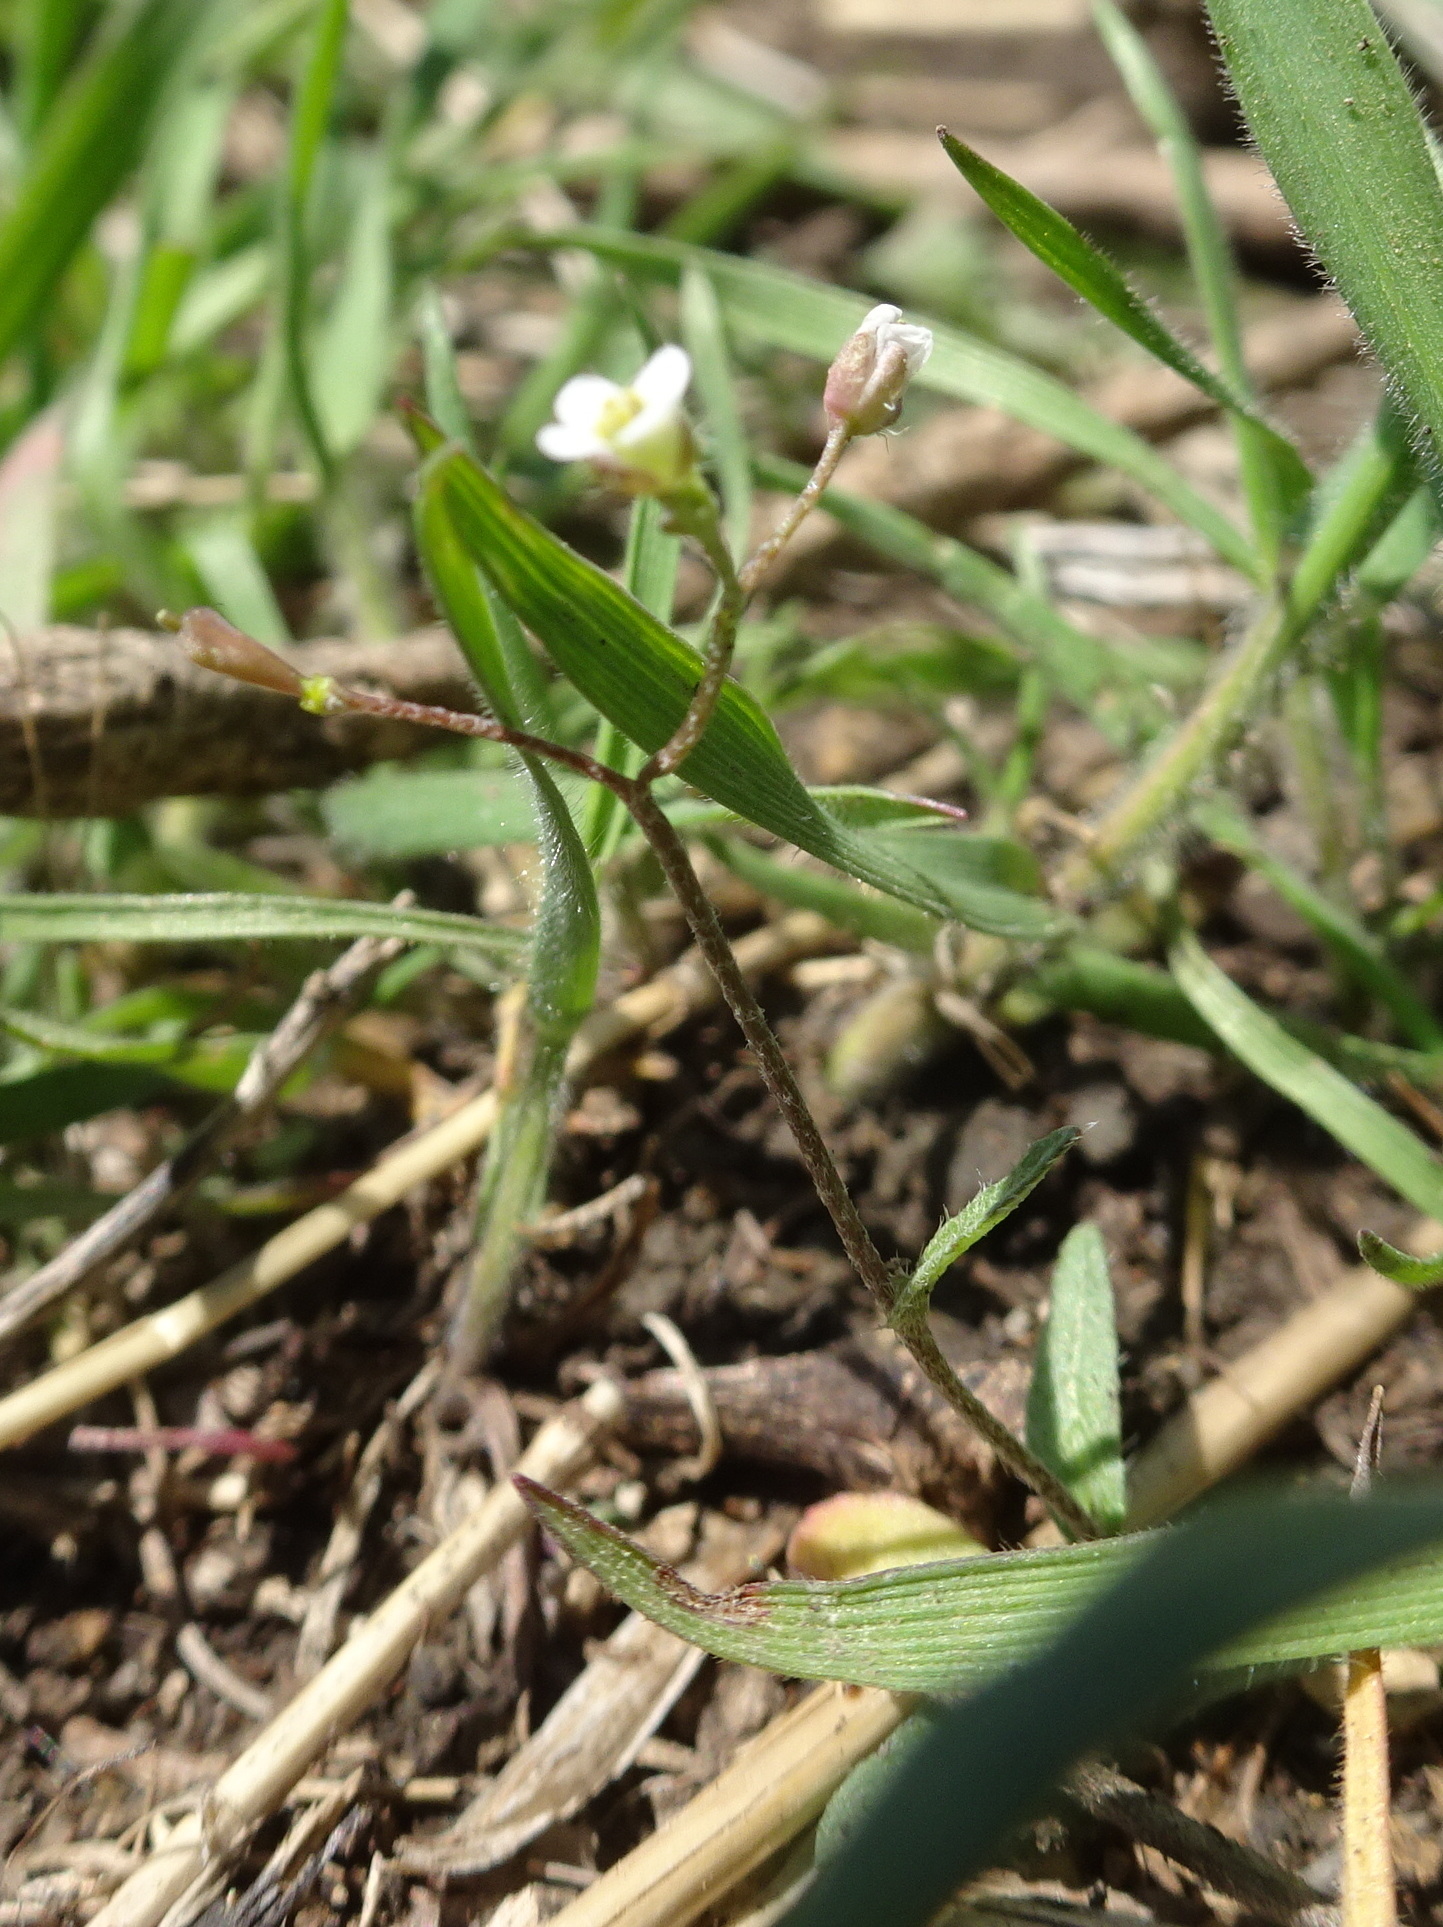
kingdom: Plantae
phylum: Tracheophyta
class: Magnoliopsida
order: Brassicales
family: Brassicaceae
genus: Capsella
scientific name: Capsella bursa-pastoris
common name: Shepherd's purse
